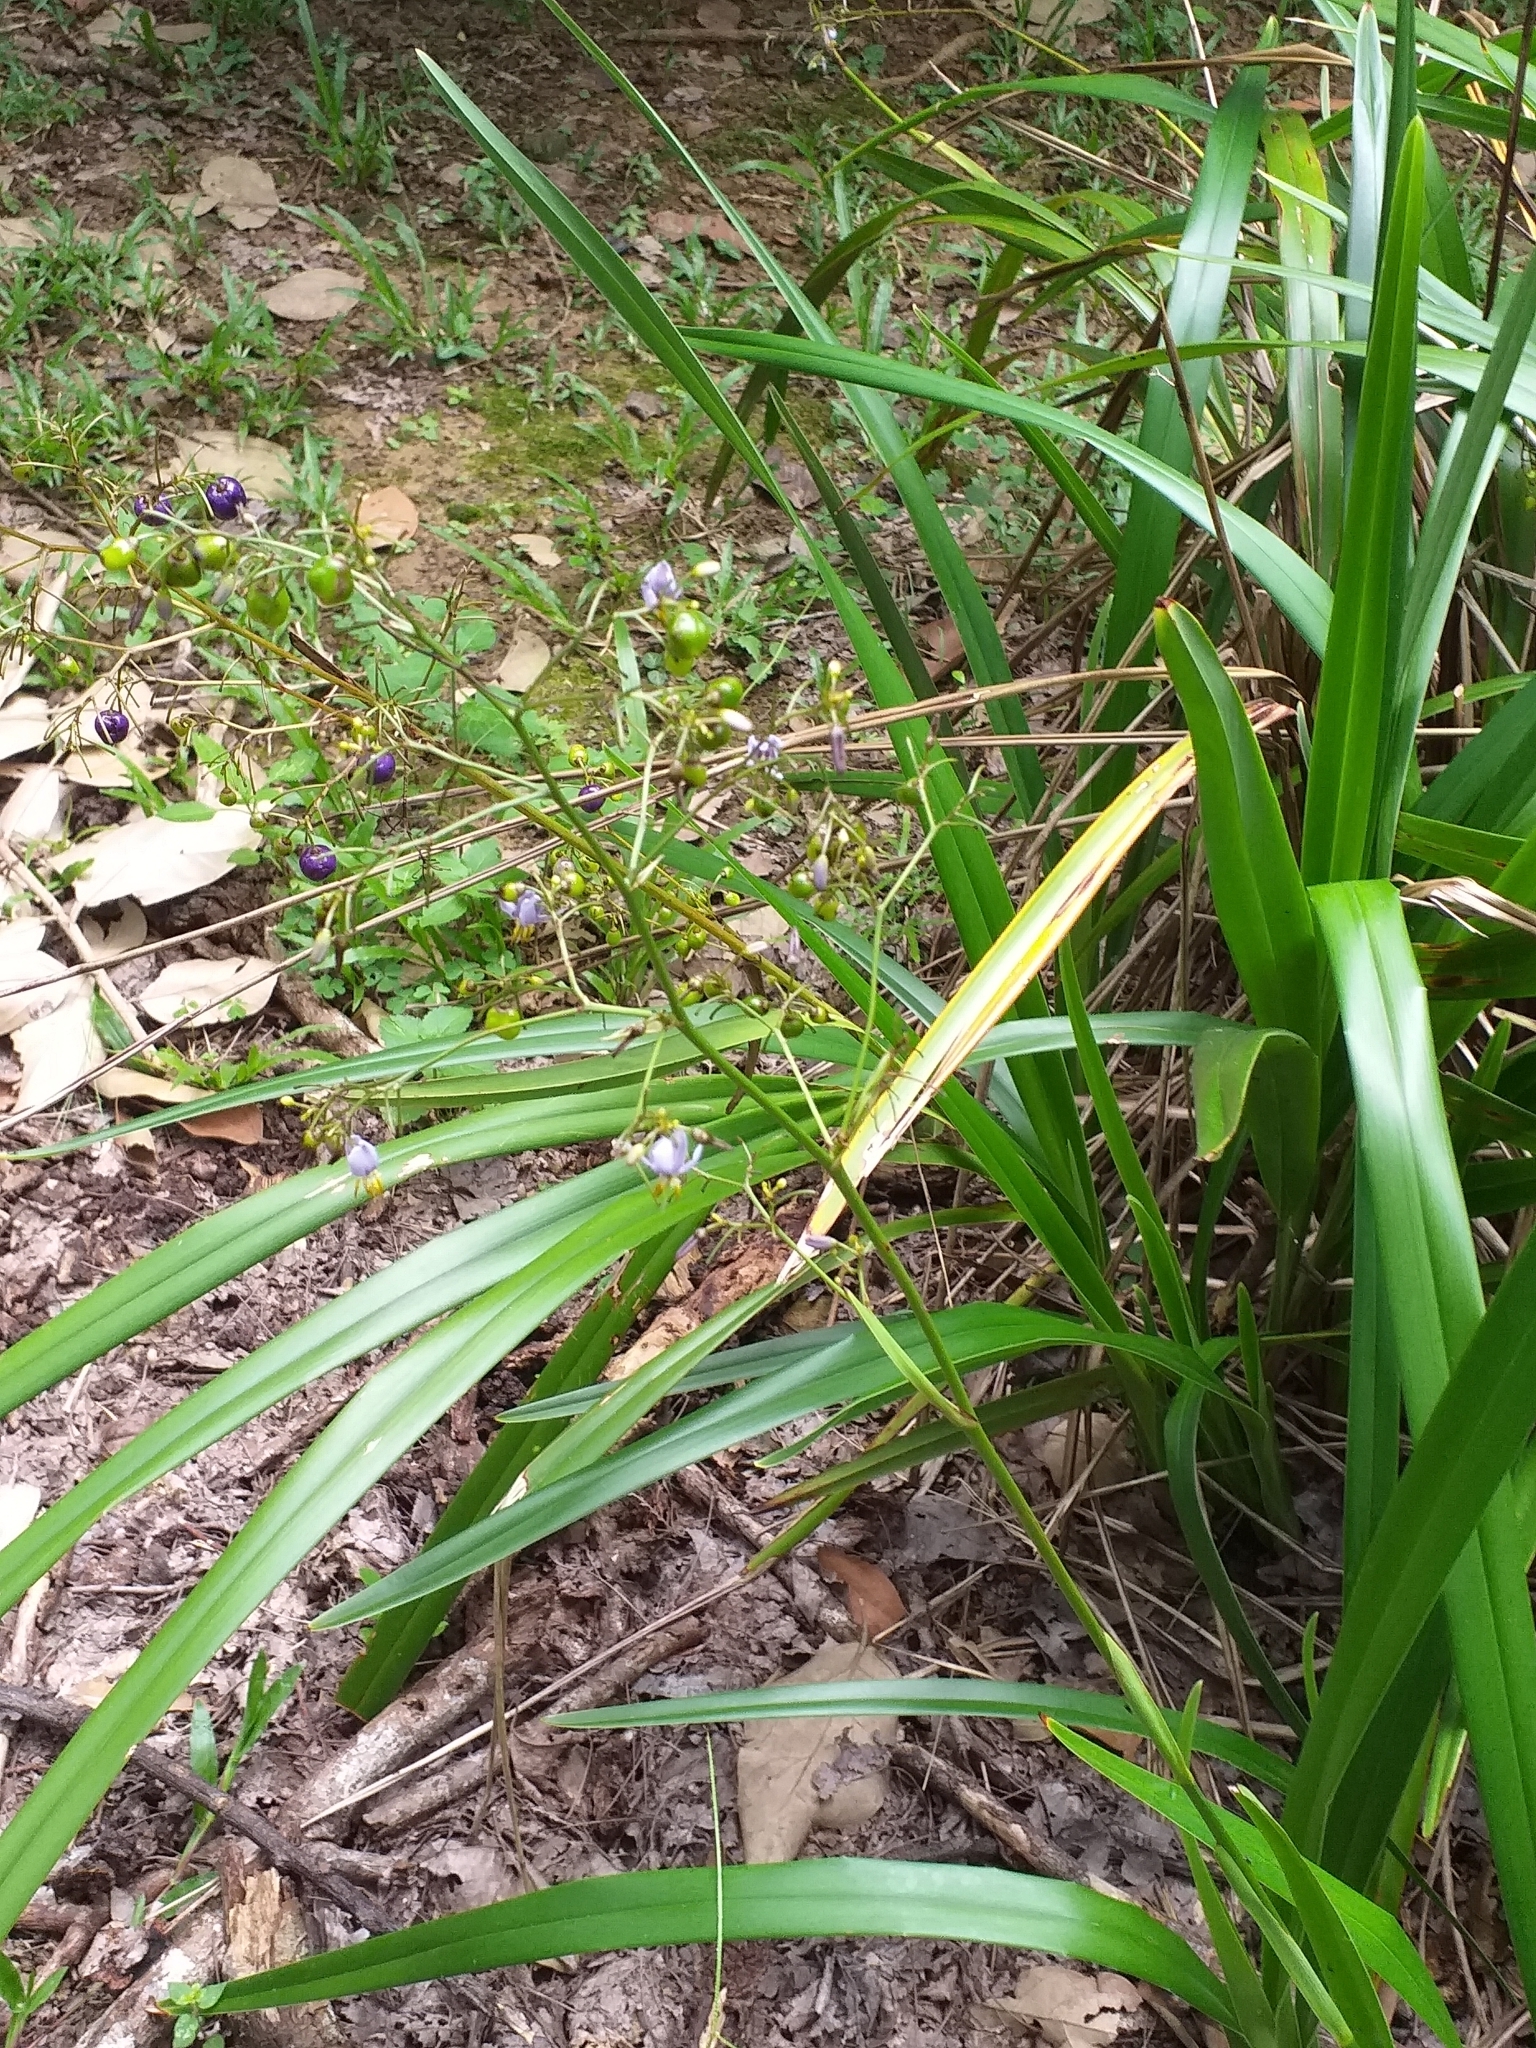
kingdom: Plantae
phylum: Tracheophyta
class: Liliopsida
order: Asparagales
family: Asphodelaceae
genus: Dianella
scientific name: Dianella ensifolia
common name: New zealand lilyplant
